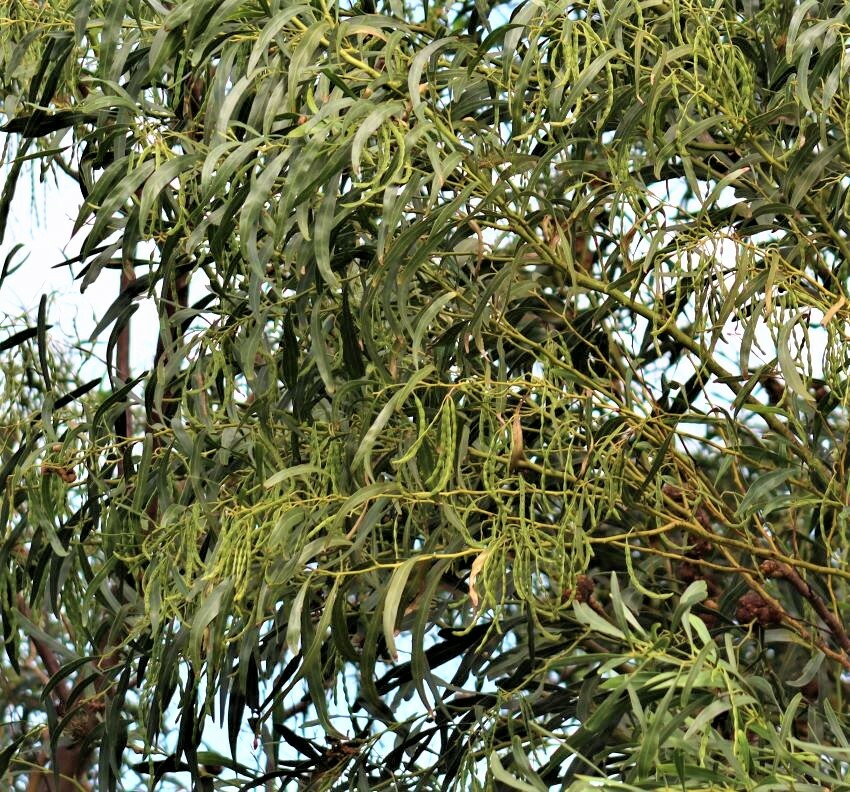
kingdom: Plantae
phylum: Tracheophyta
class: Magnoliopsida
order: Fabales
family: Fabaceae
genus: Acacia
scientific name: Acacia saligna
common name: Orange wattle
